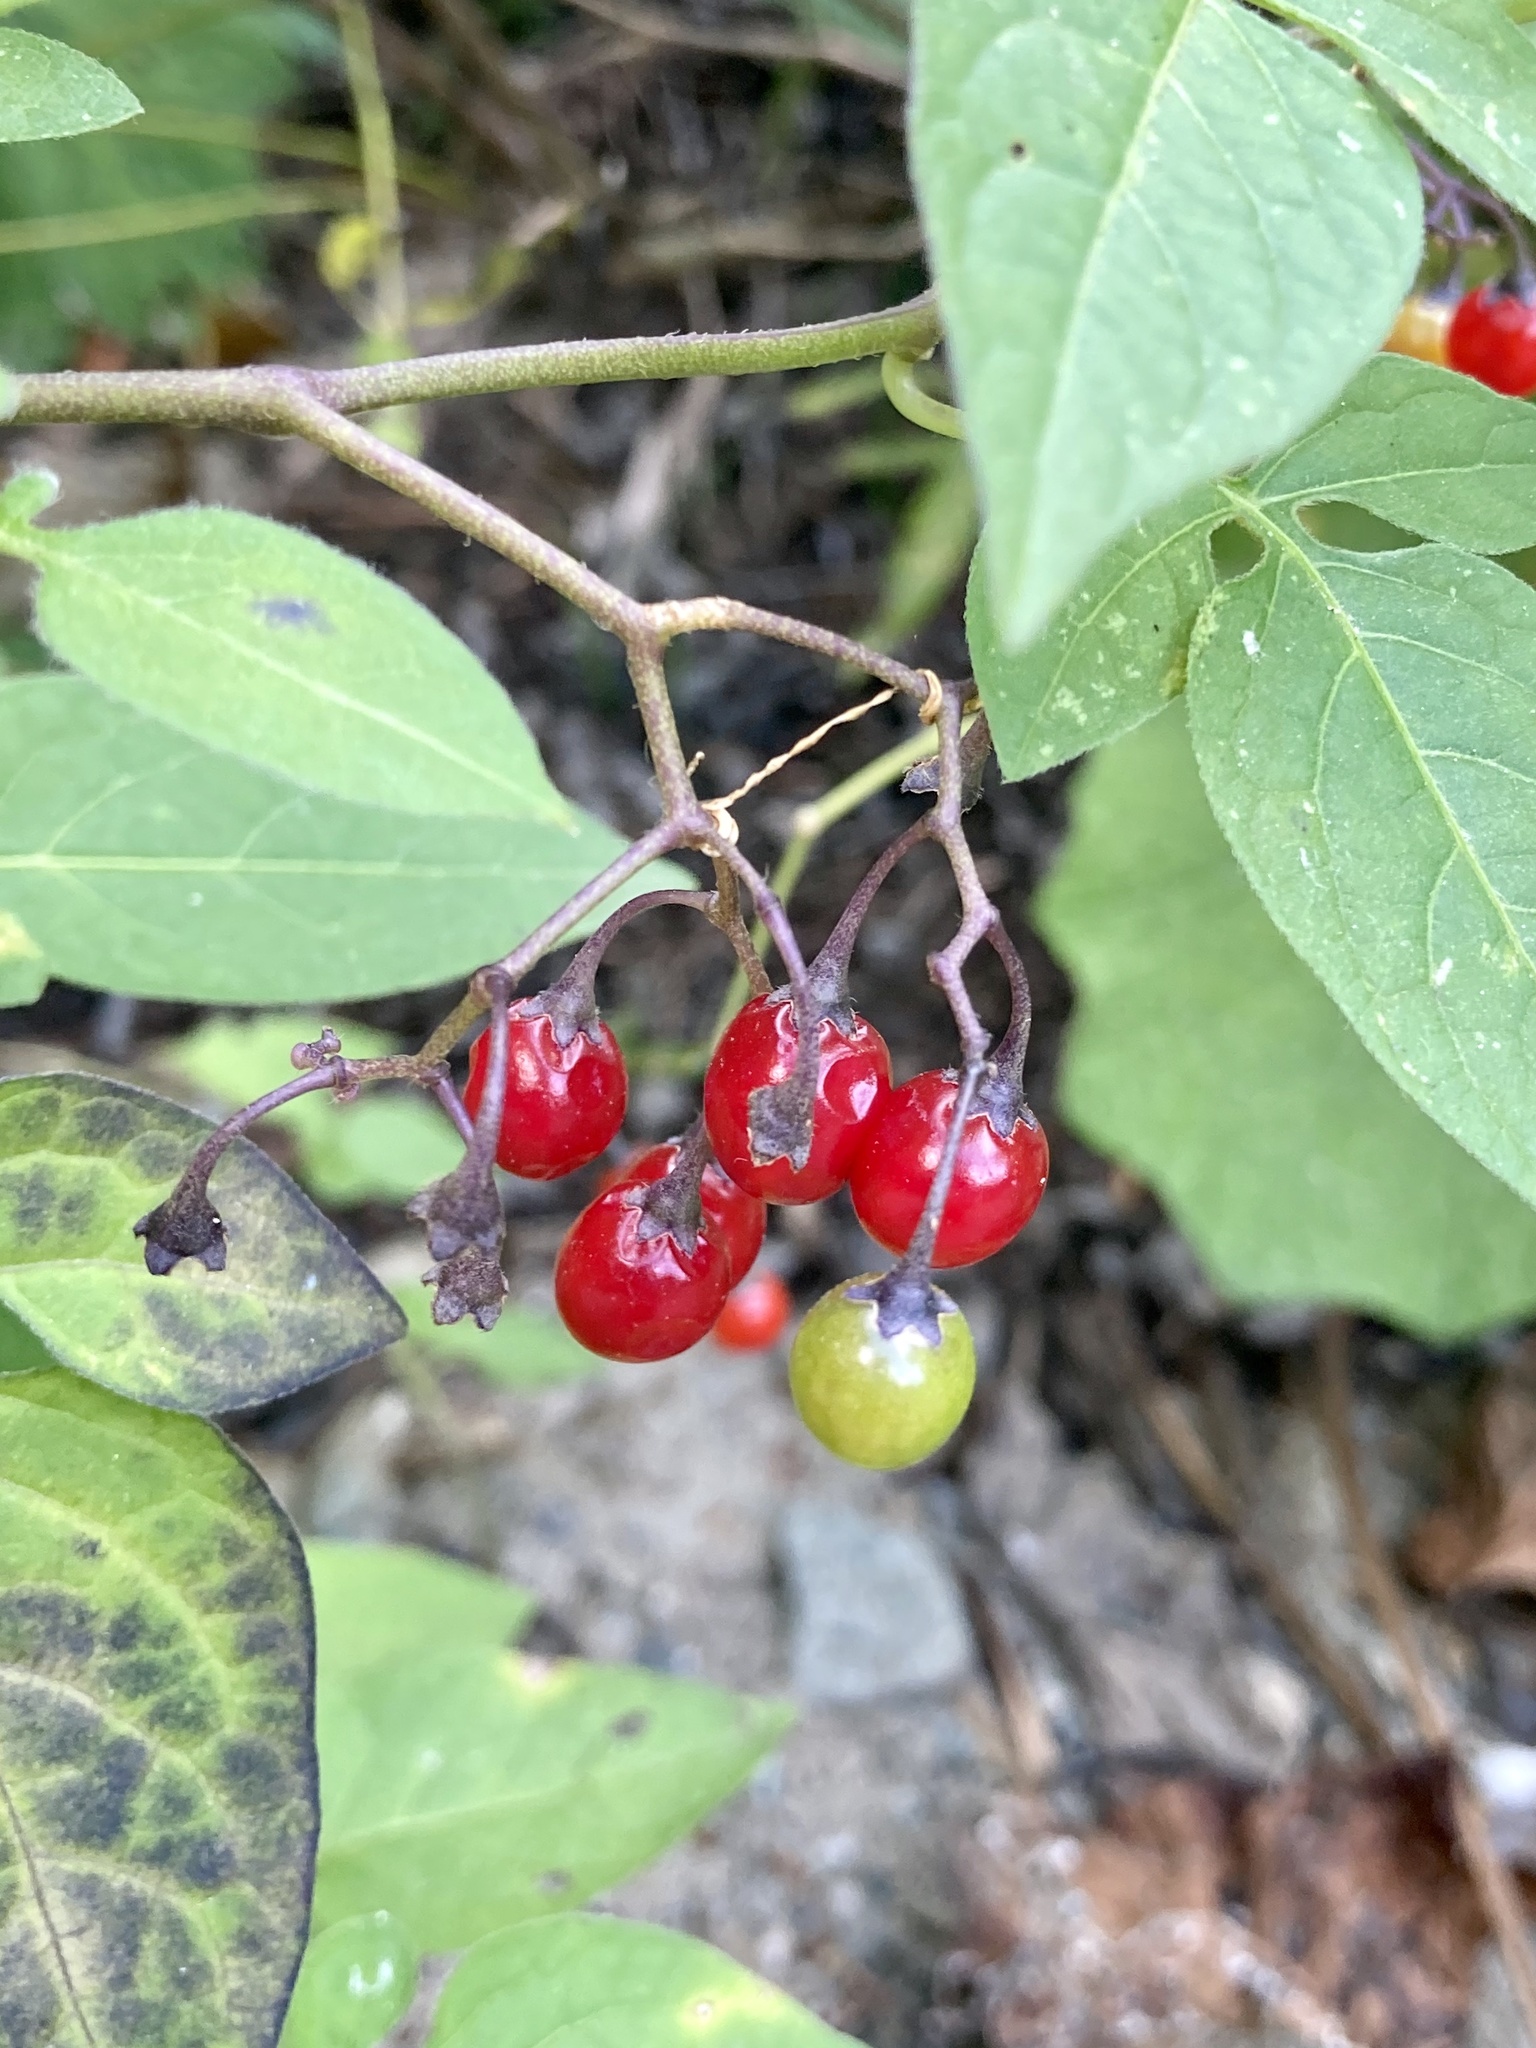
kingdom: Plantae
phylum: Tracheophyta
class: Magnoliopsida
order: Solanales
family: Solanaceae
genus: Solanum
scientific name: Solanum dulcamara
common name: Climbing nightshade
